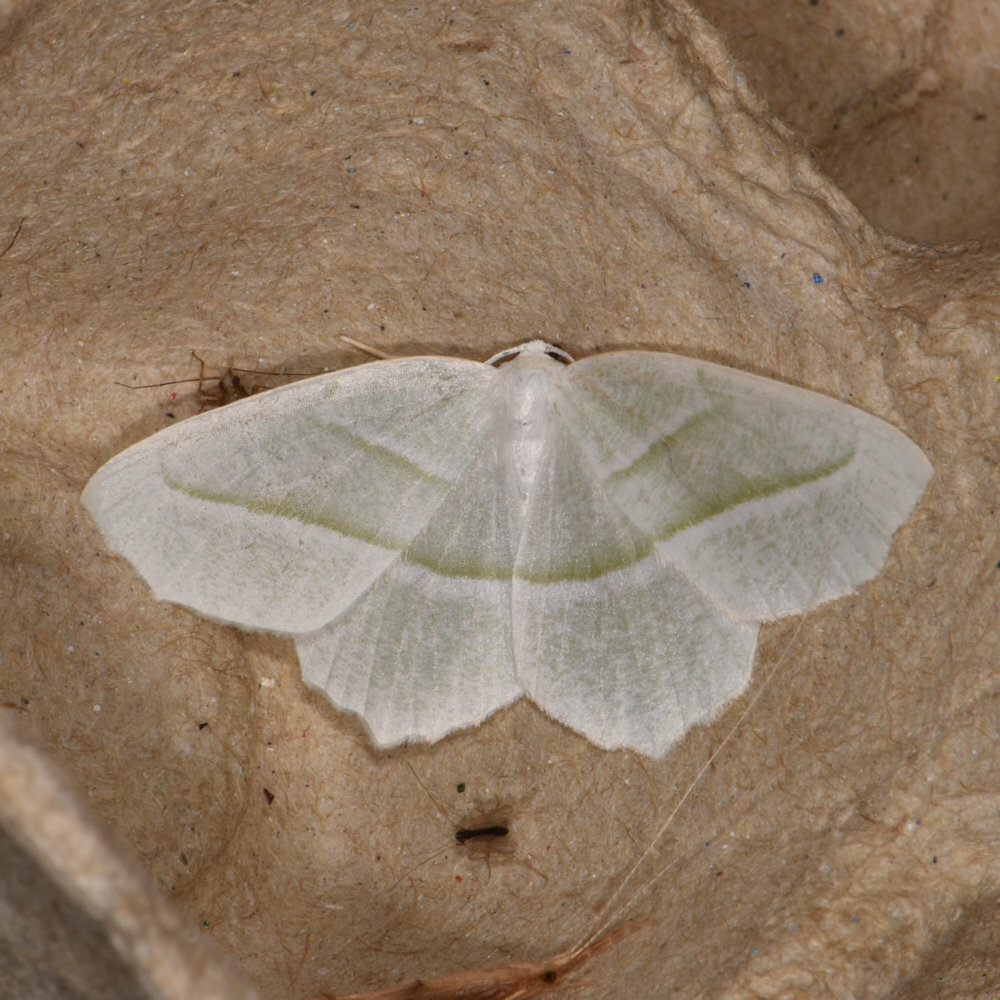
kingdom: Animalia
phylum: Arthropoda
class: Insecta
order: Lepidoptera
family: Geometridae
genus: Campaea
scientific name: Campaea perlata
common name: Fringed looper
